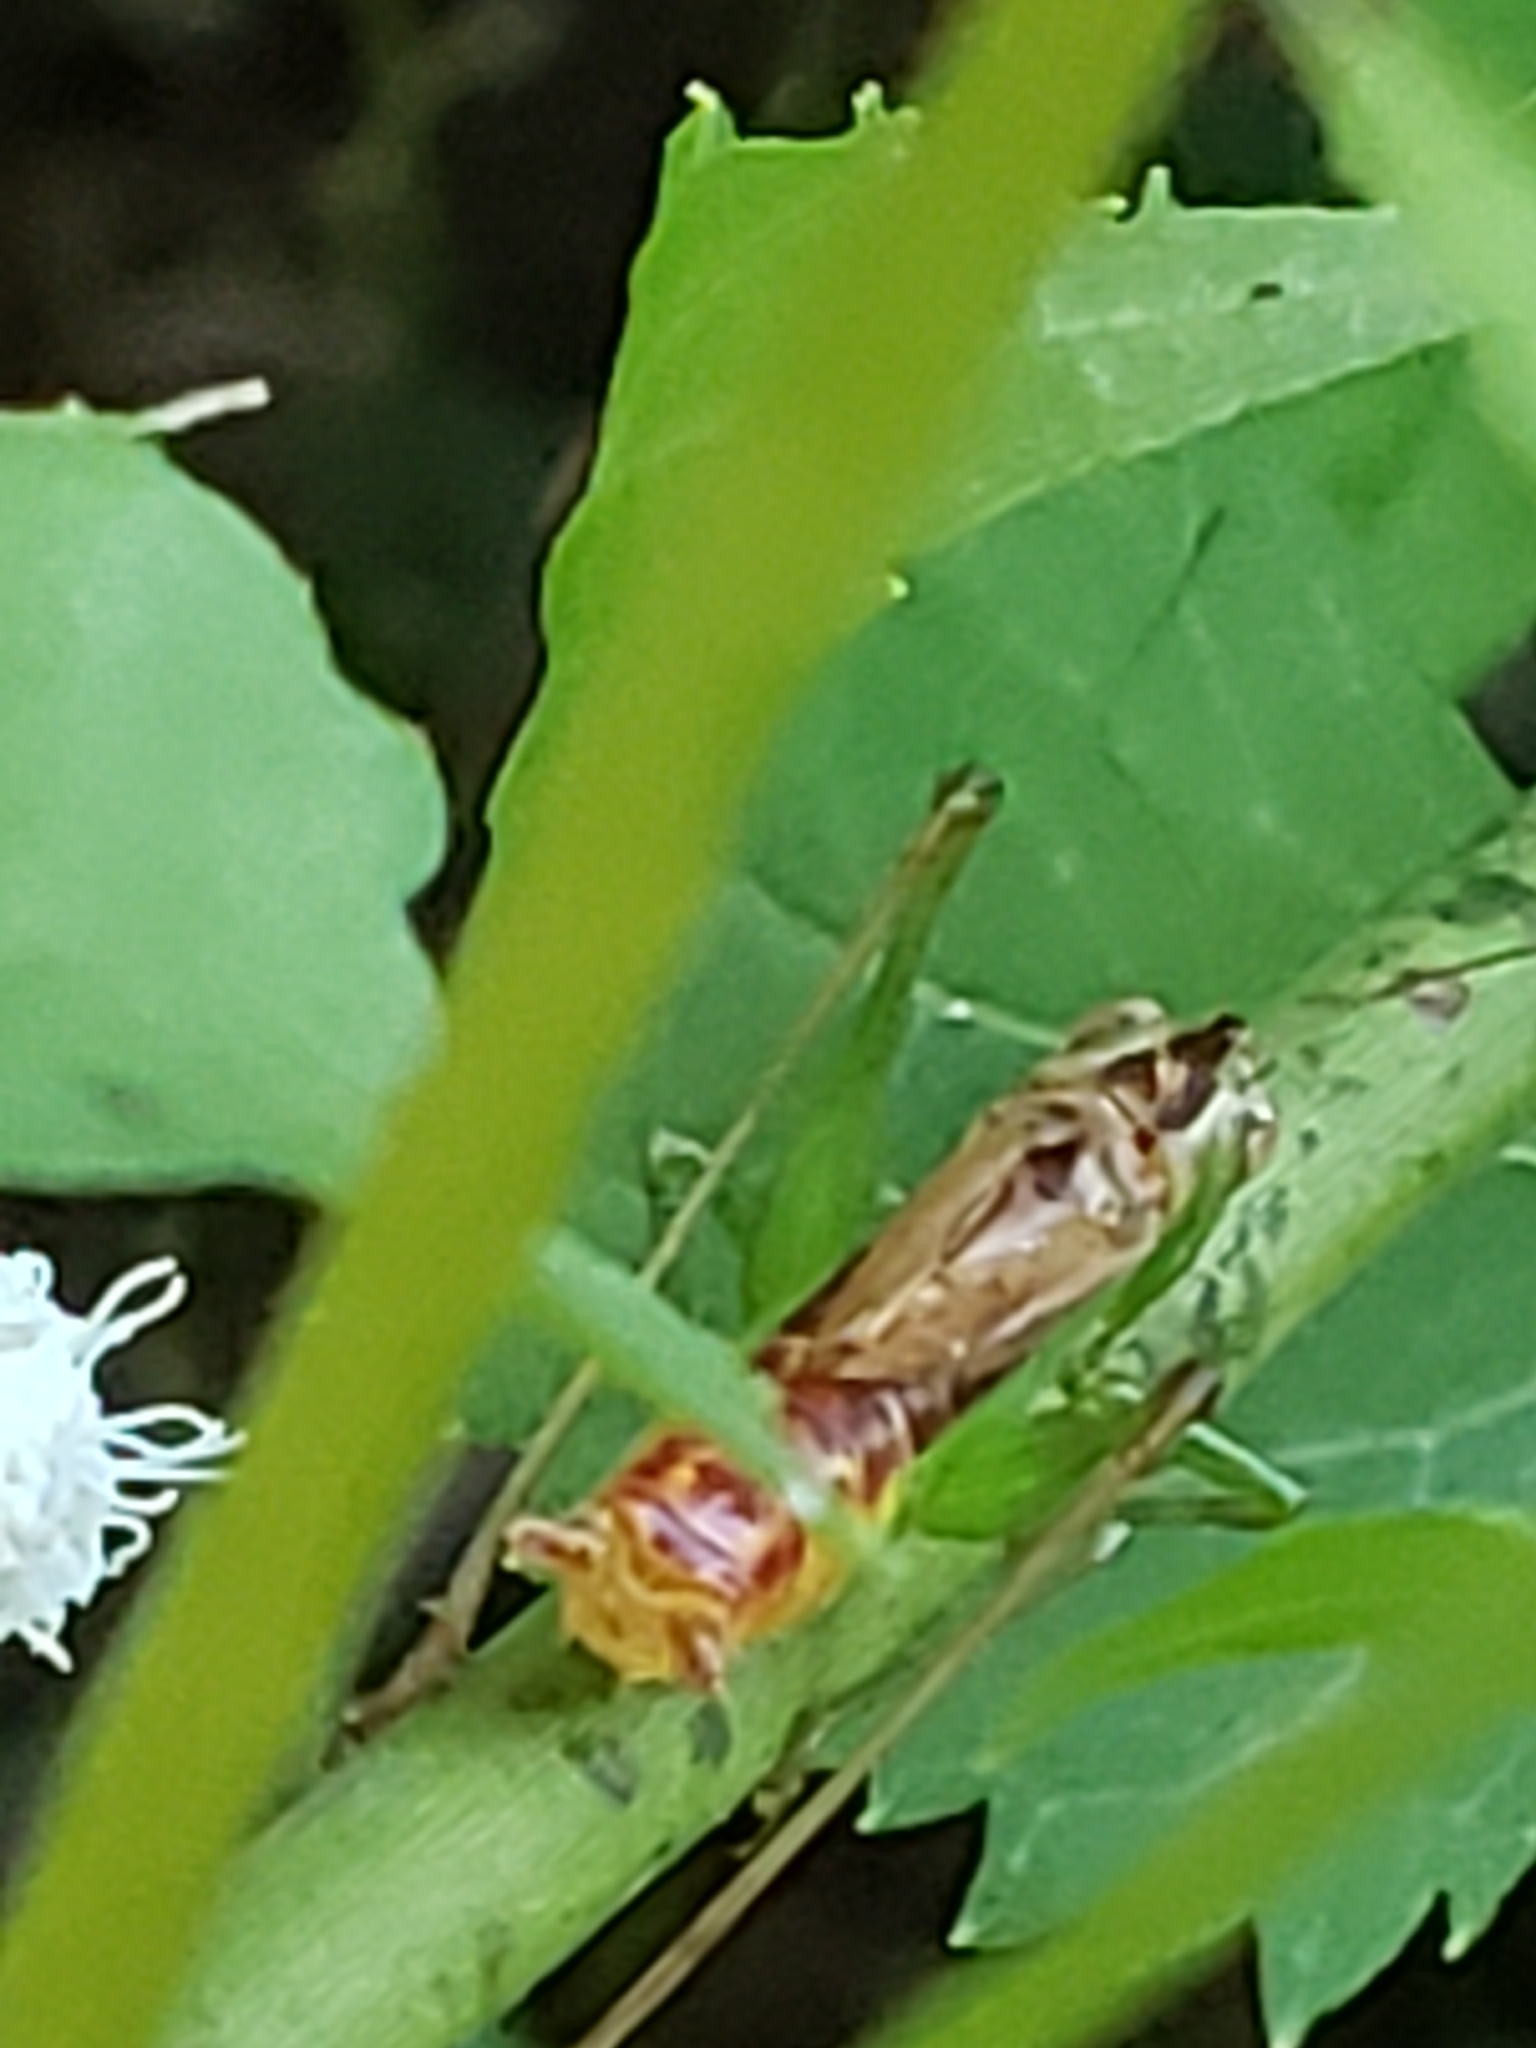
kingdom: Animalia
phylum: Arthropoda
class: Insecta
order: Orthoptera
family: Tettigoniidae
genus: Conocephalus
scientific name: Conocephalus brevipennis
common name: Short-winged meadow katydid
